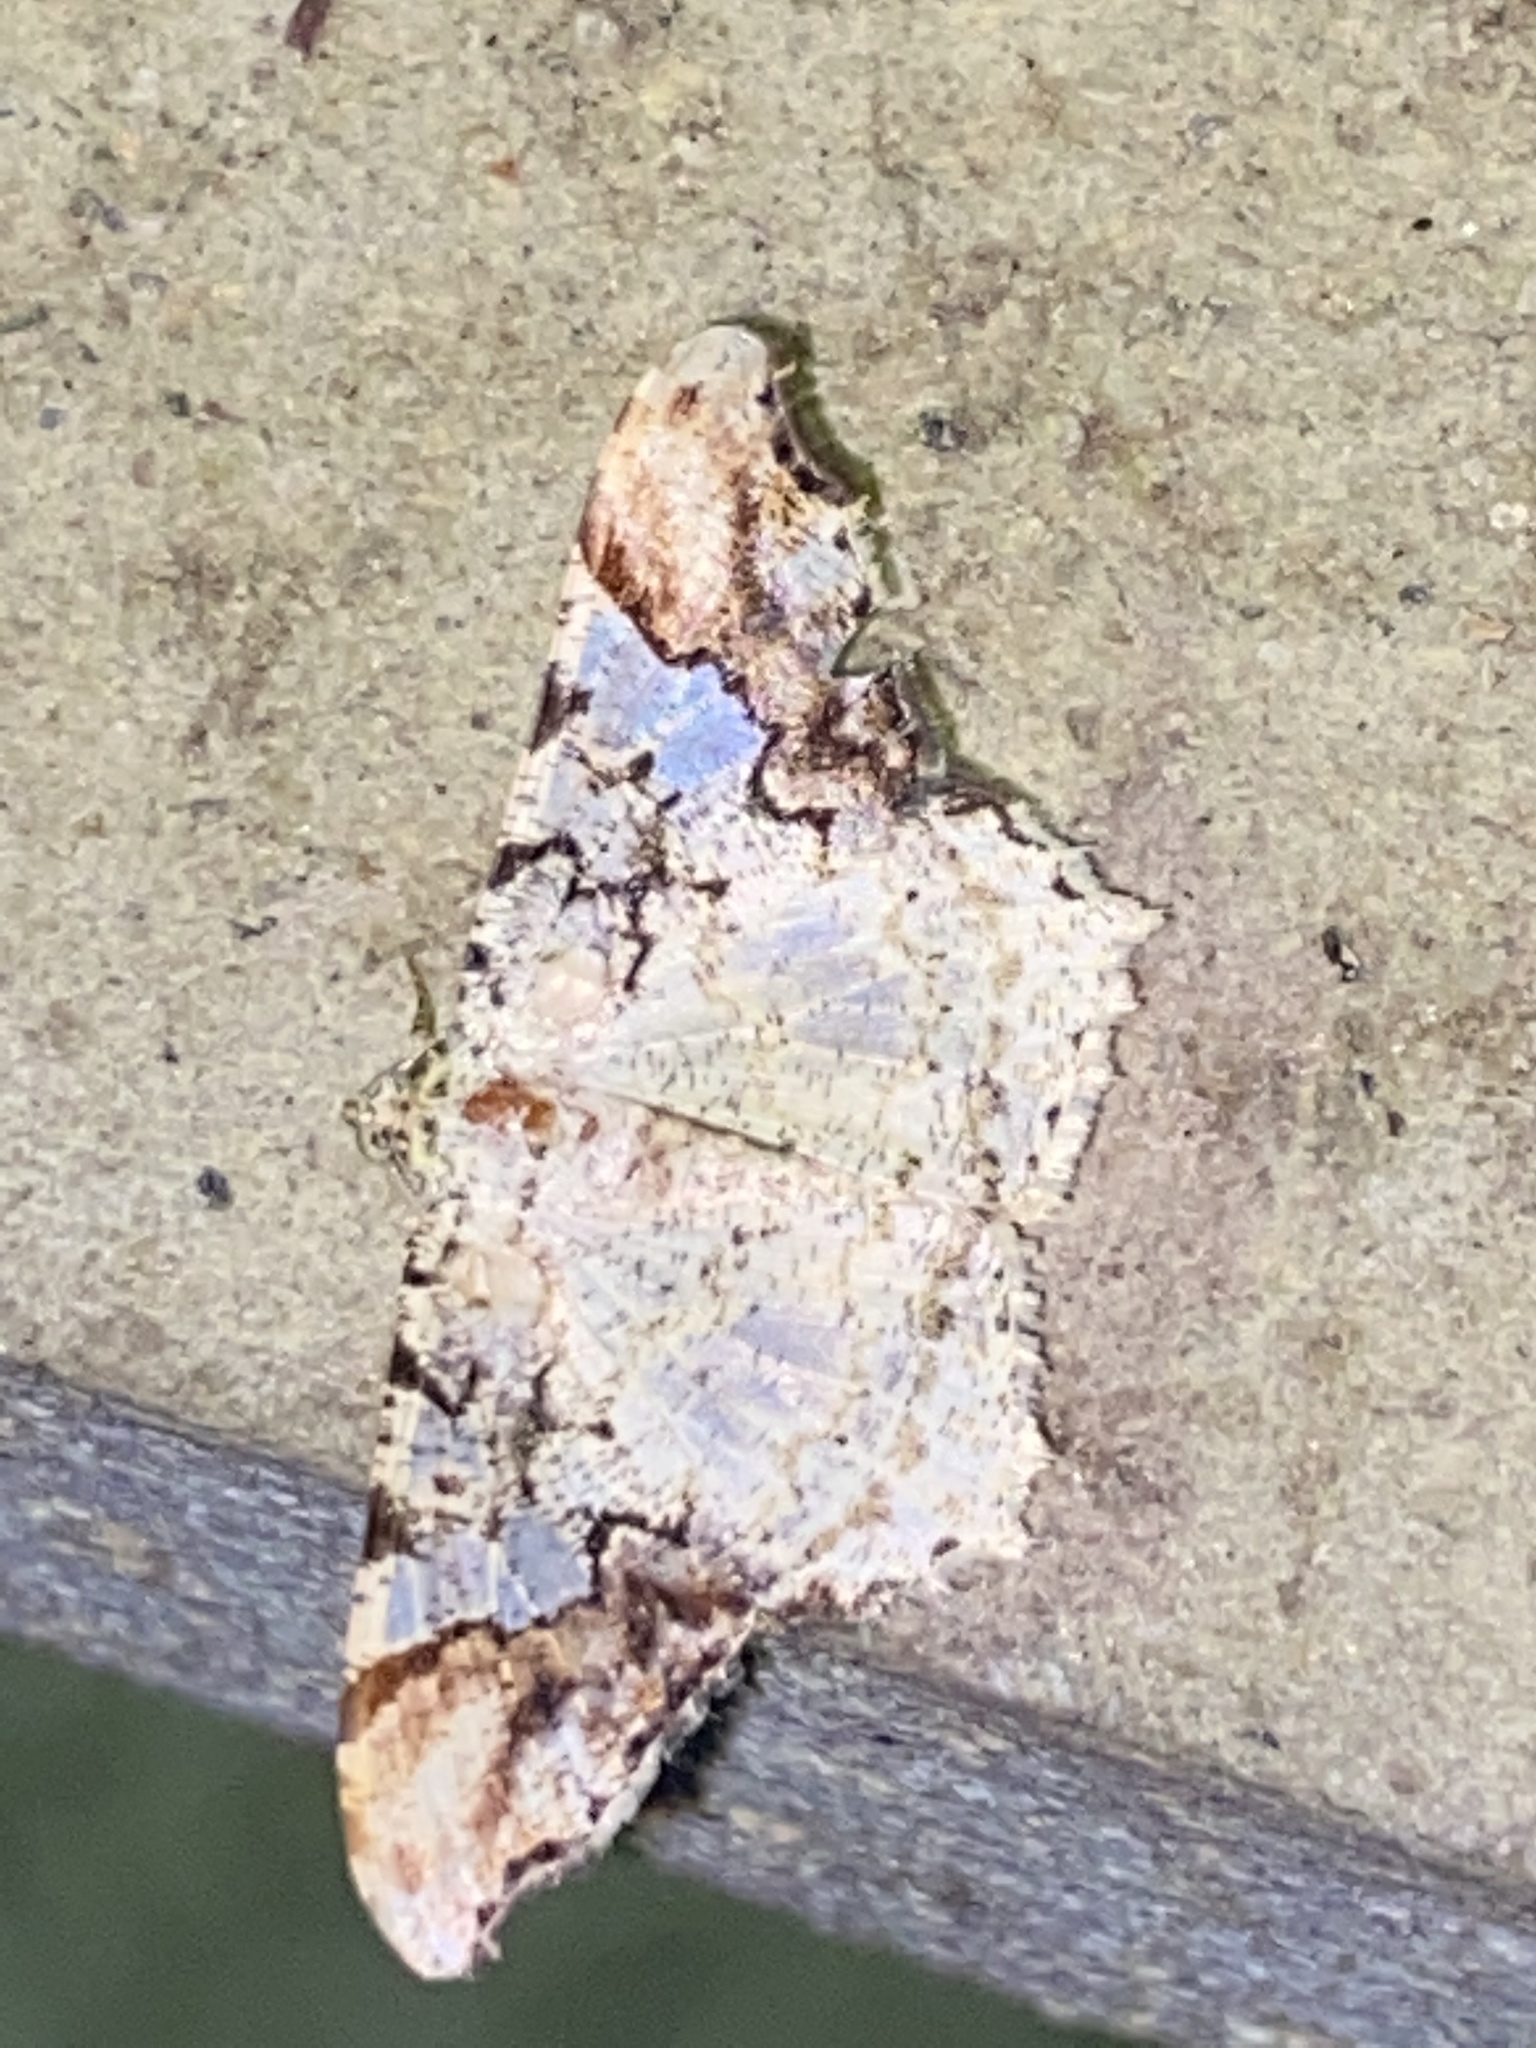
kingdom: Animalia
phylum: Arthropoda
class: Insecta
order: Lepidoptera
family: Geometridae
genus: Macaria
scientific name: Macaria approximaria
